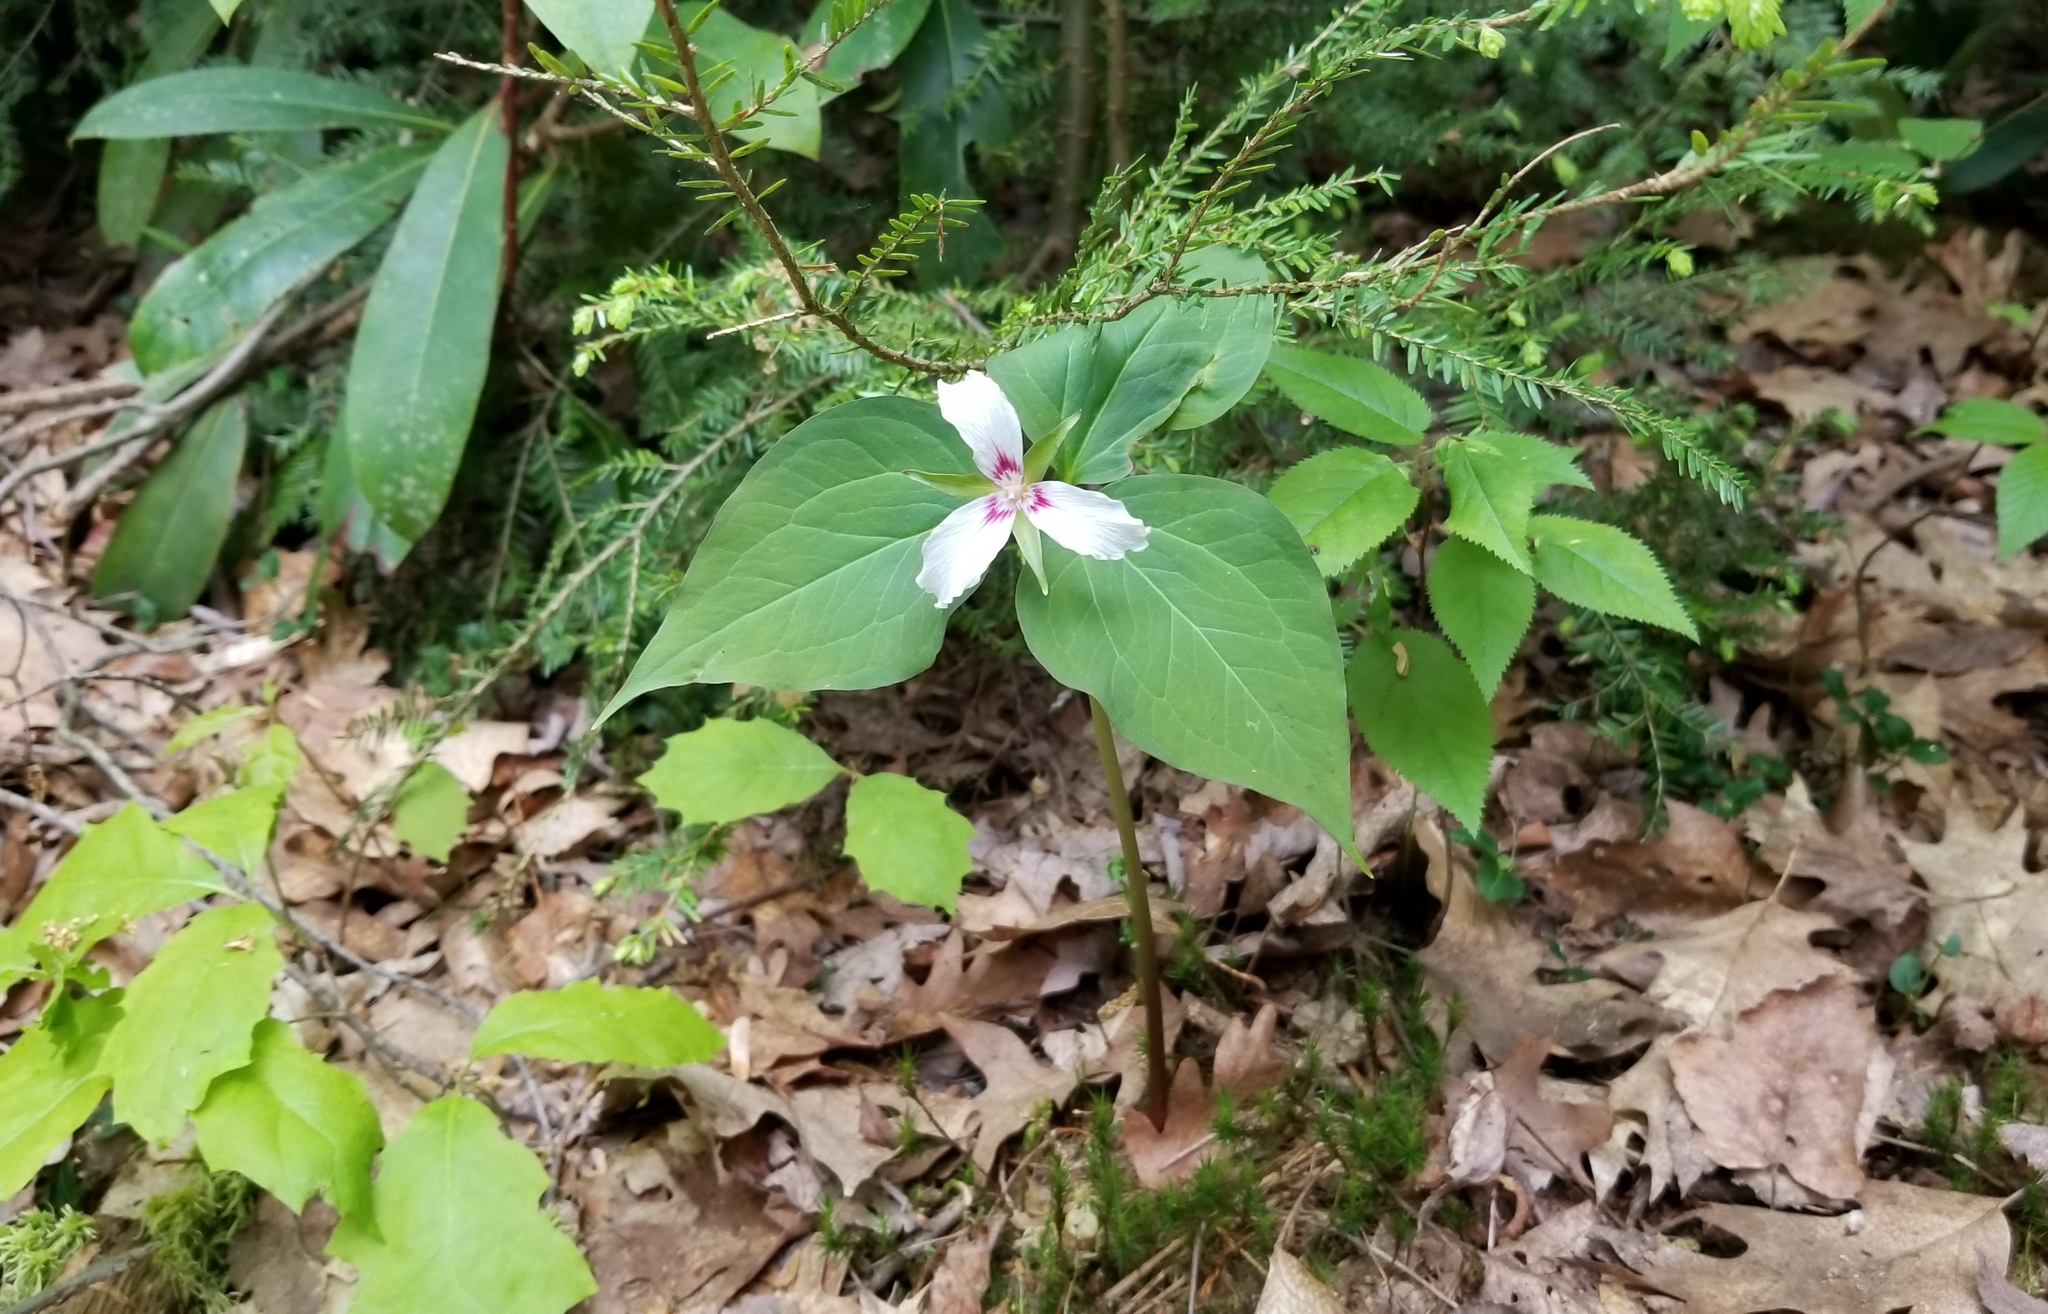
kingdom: Plantae
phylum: Tracheophyta
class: Liliopsida
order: Liliales
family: Melanthiaceae
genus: Trillium
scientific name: Trillium undulatum
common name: Paint trillium
